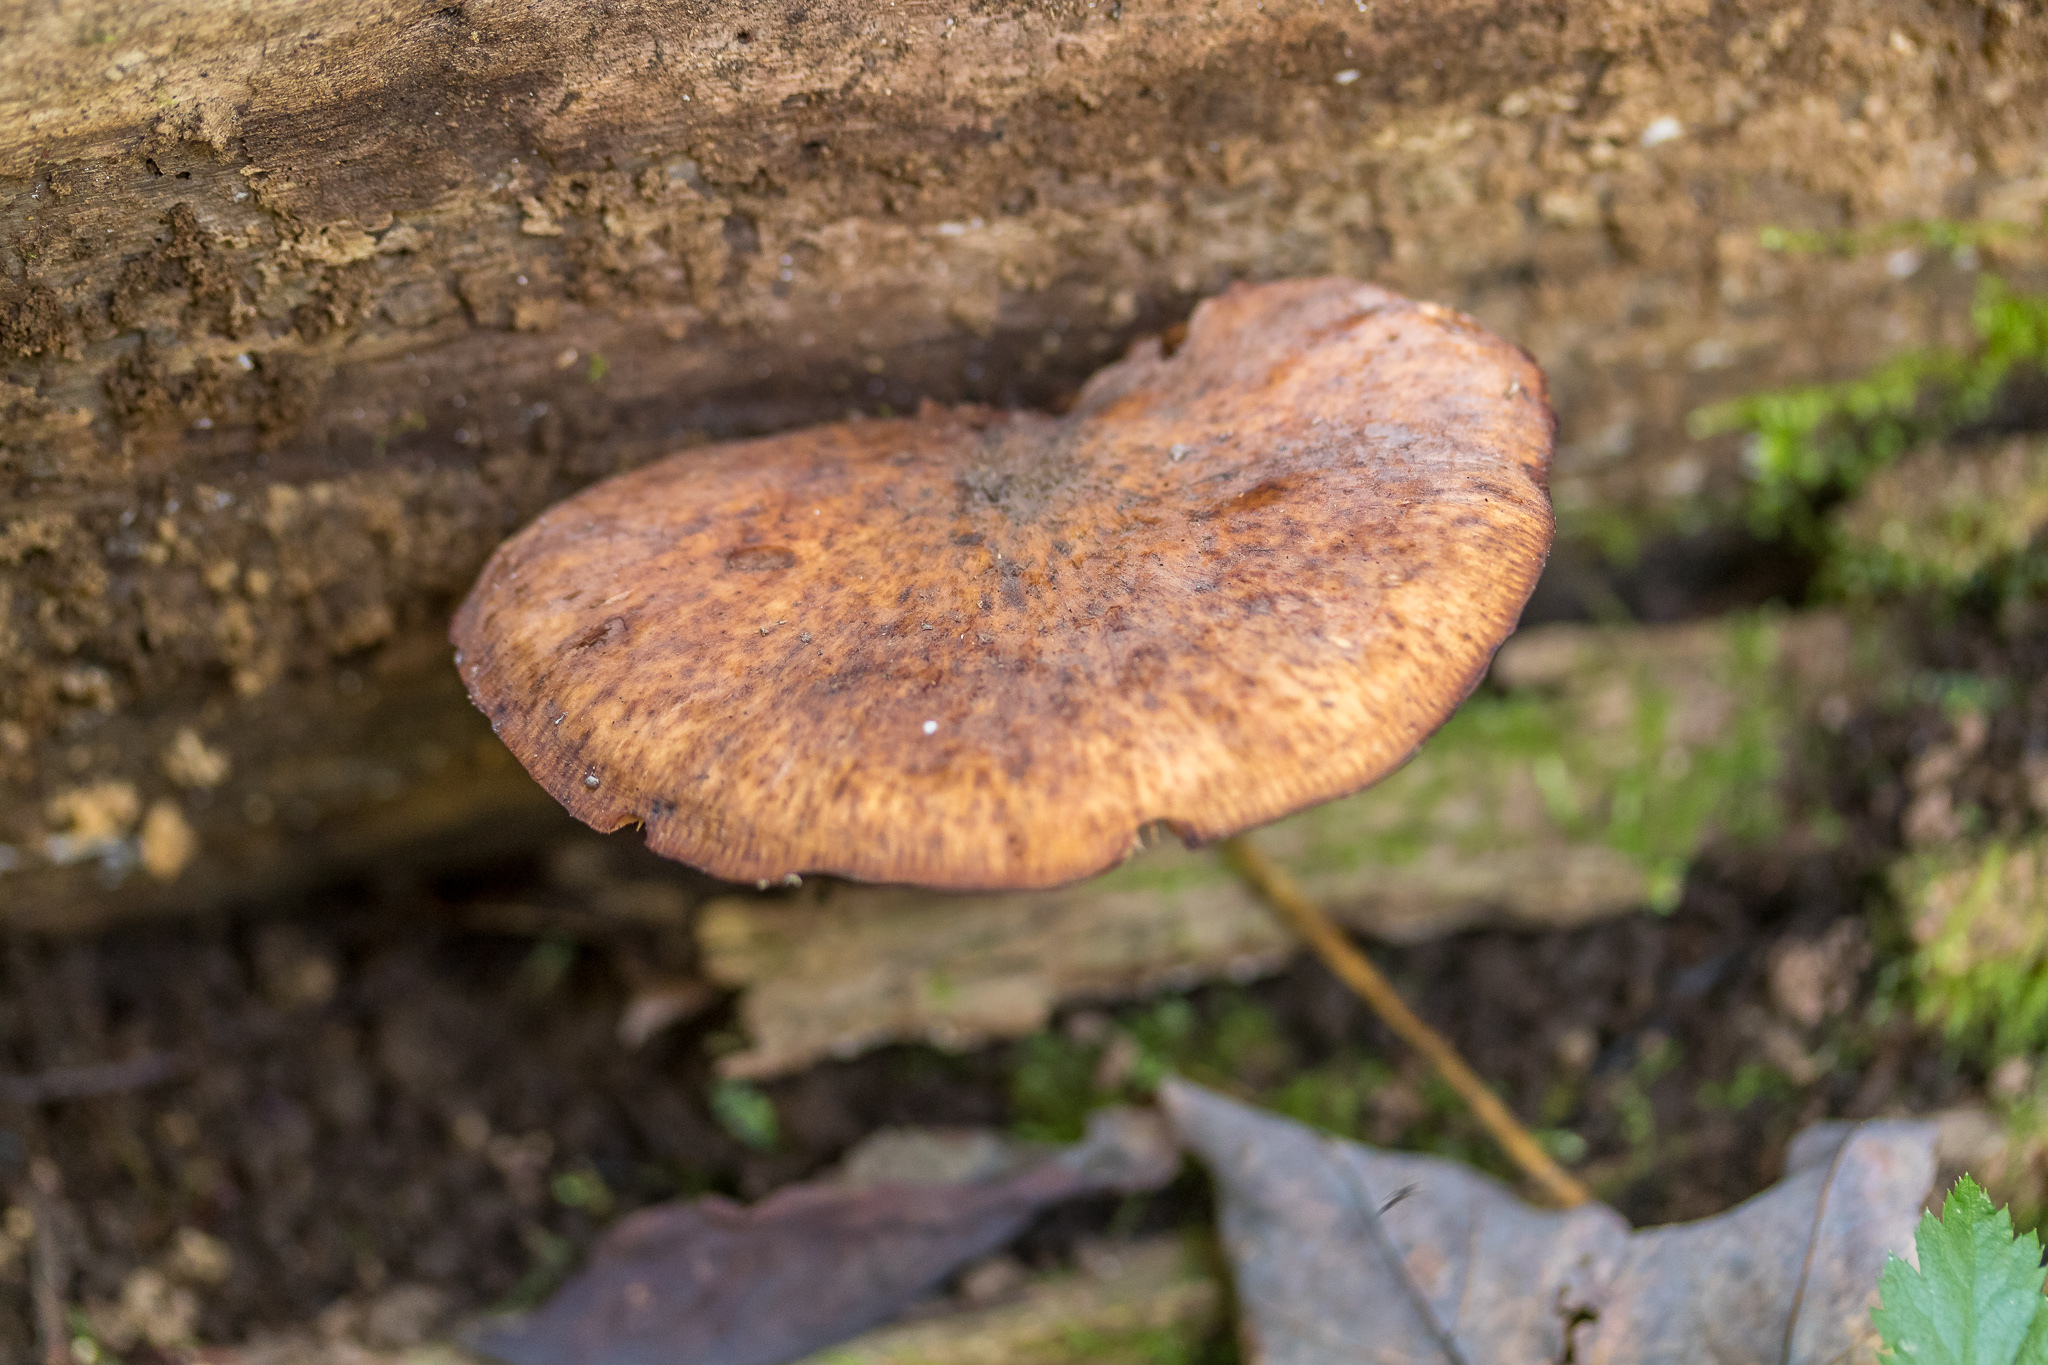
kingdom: Fungi
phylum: Basidiomycota
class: Agaricomycetes
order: Agaricales
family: Physalacriaceae
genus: Armillaria
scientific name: Armillaria gallica
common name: Bulbous honey fungus
